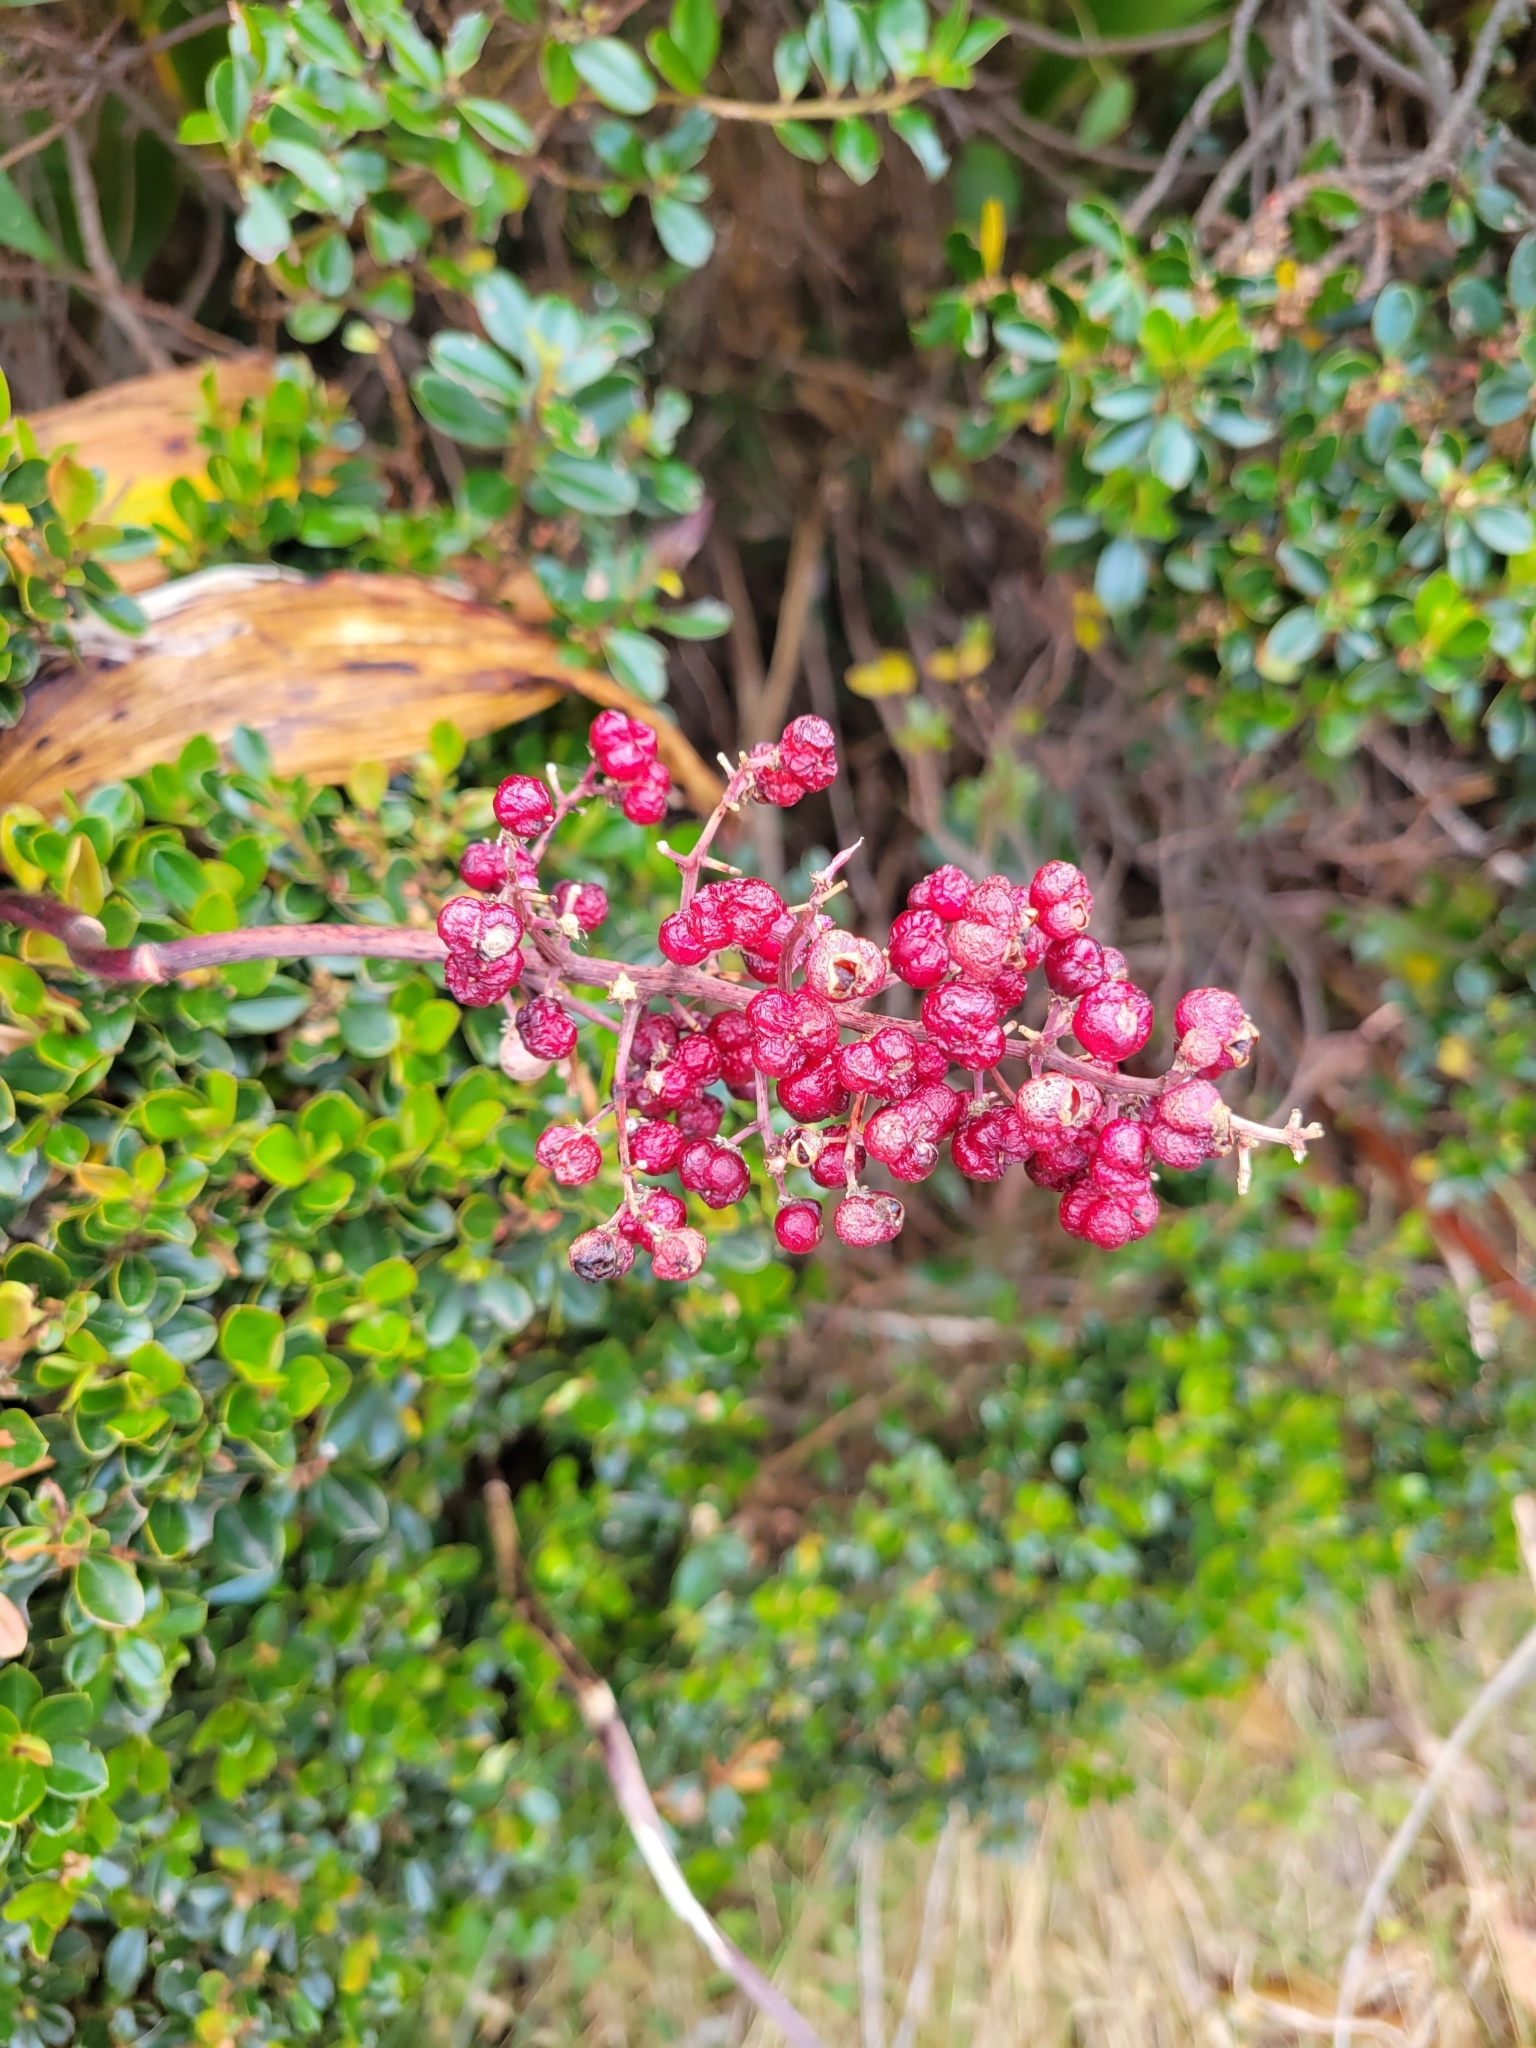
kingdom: Plantae
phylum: Tracheophyta
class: Liliopsida
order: Asparagales
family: Asparagaceae
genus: Maianthemum
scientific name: Maianthemum gigas
